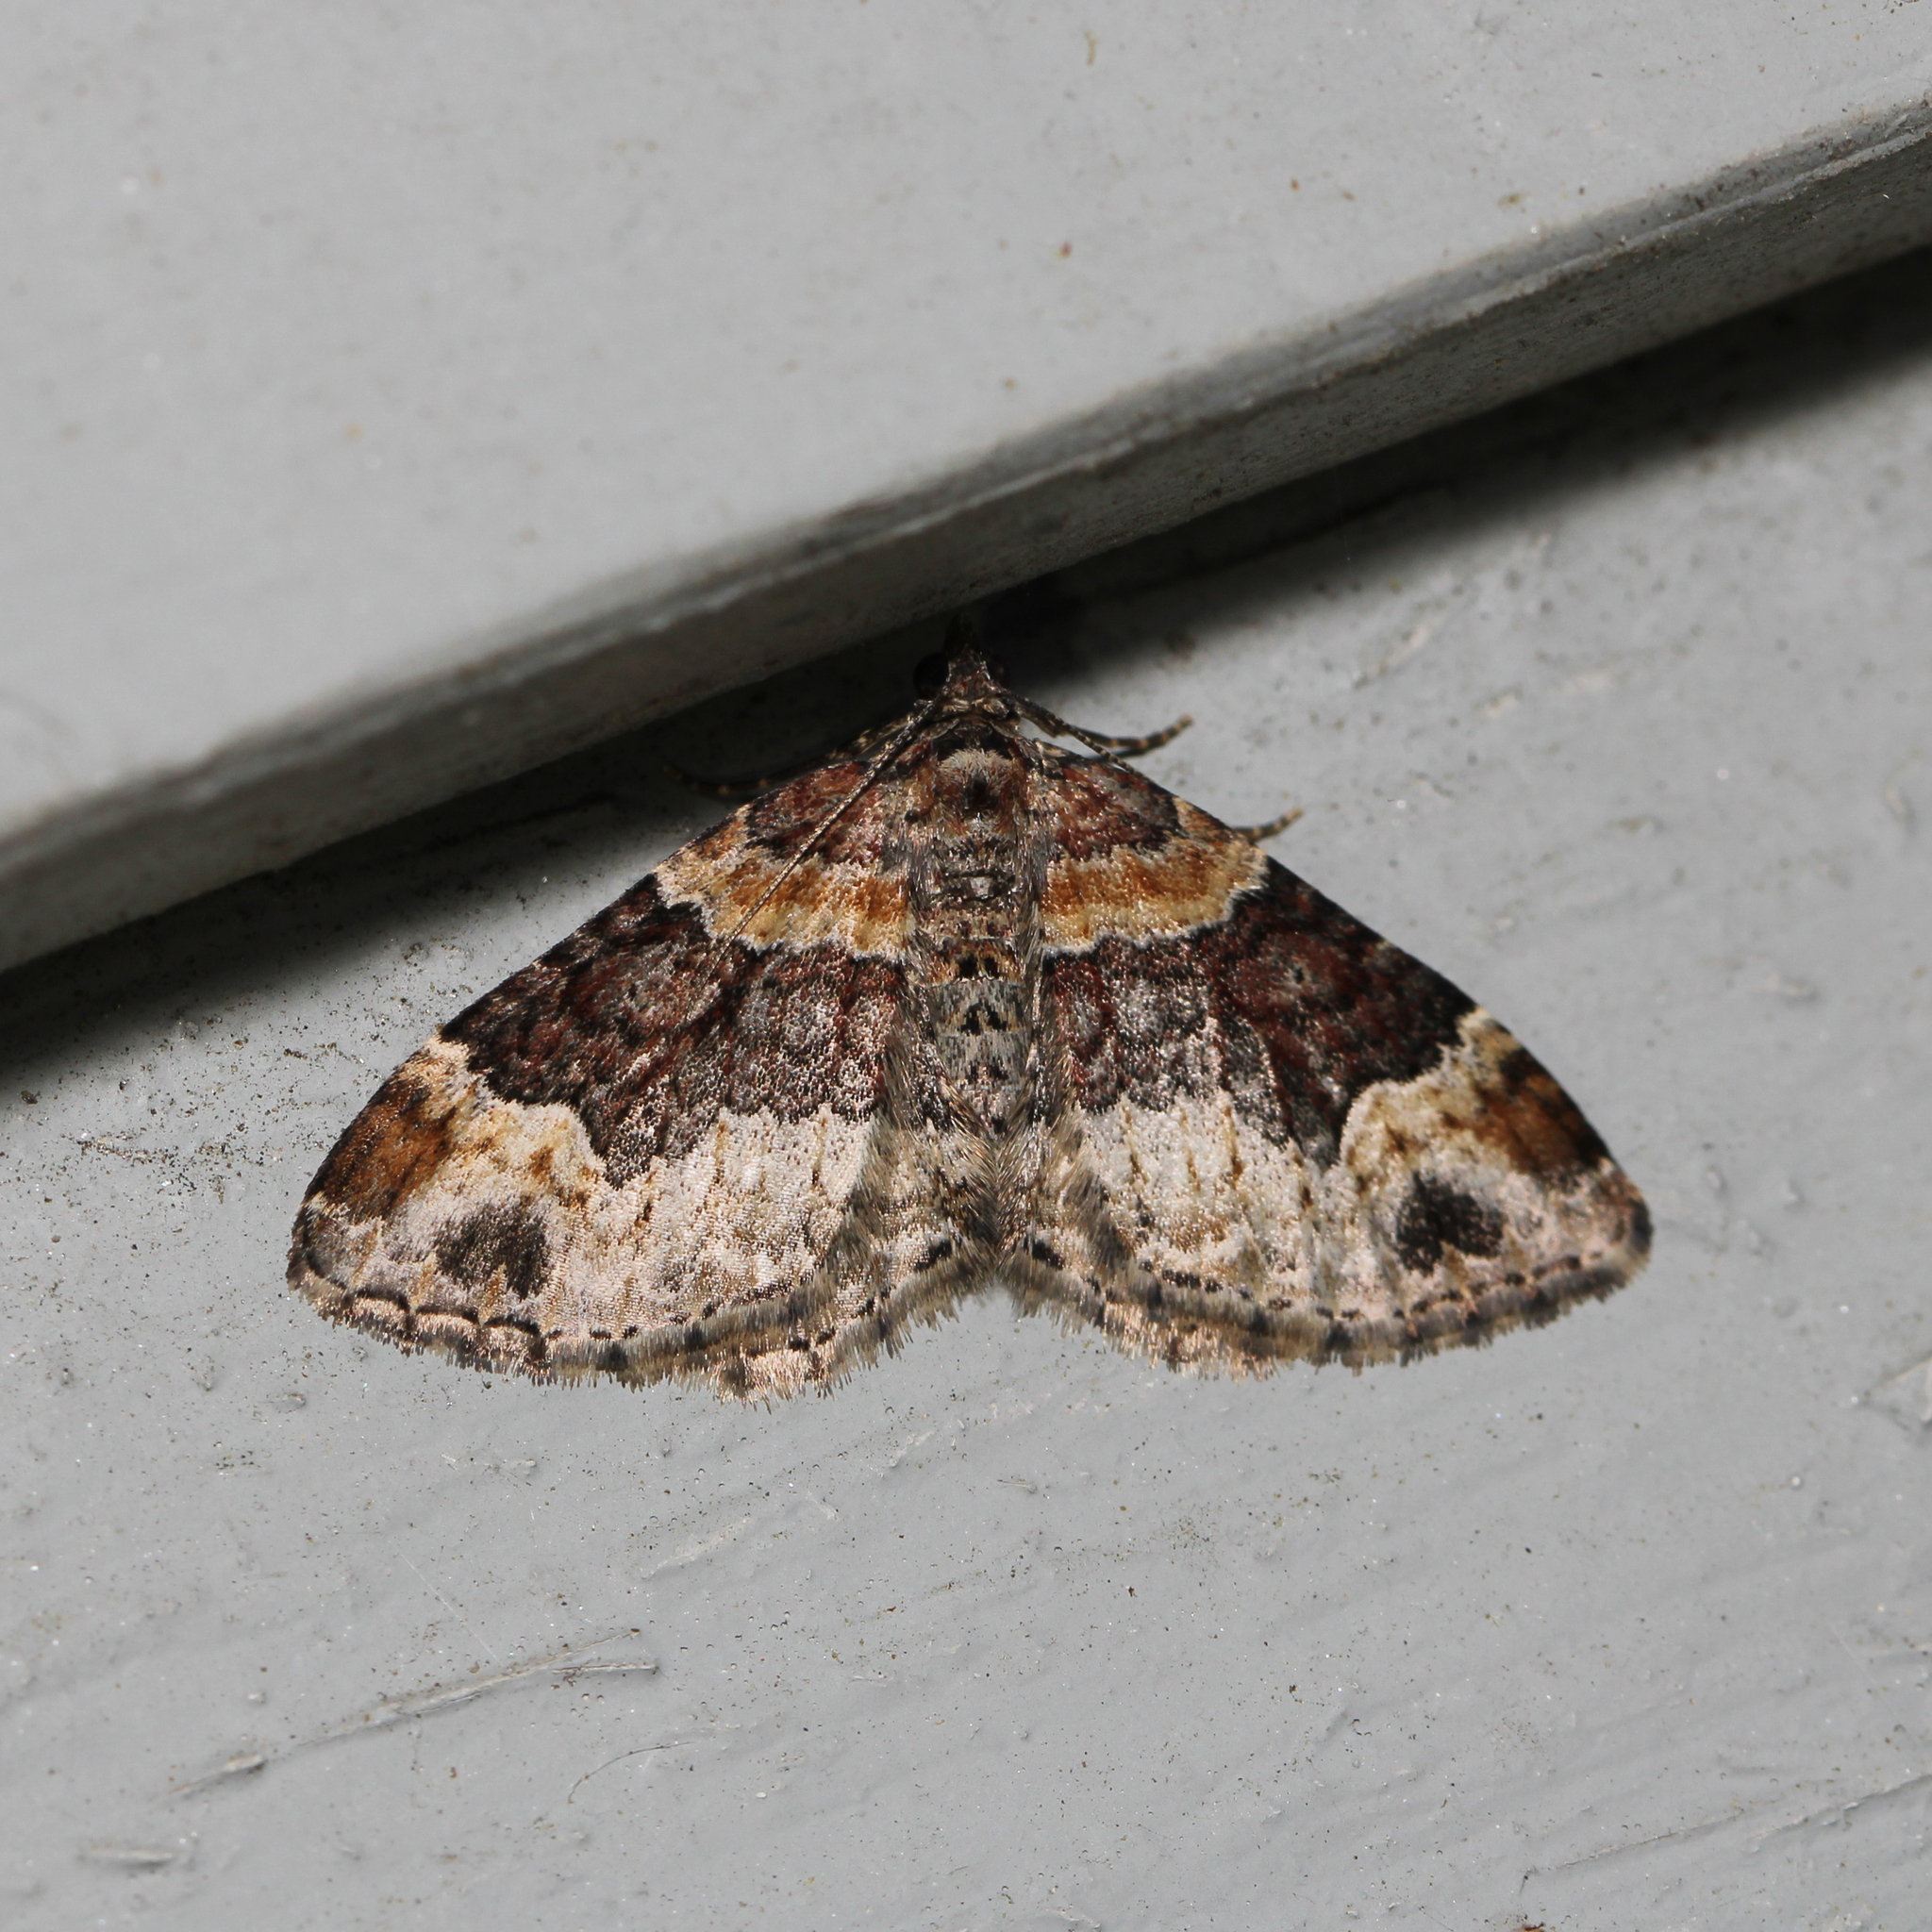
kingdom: Animalia
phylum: Arthropoda
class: Insecta
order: Lepidoptera
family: Geometridae
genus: Xanthorhoe
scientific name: Xanthorhoe ferrugata
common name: Dark-barred twin-spot carpet
